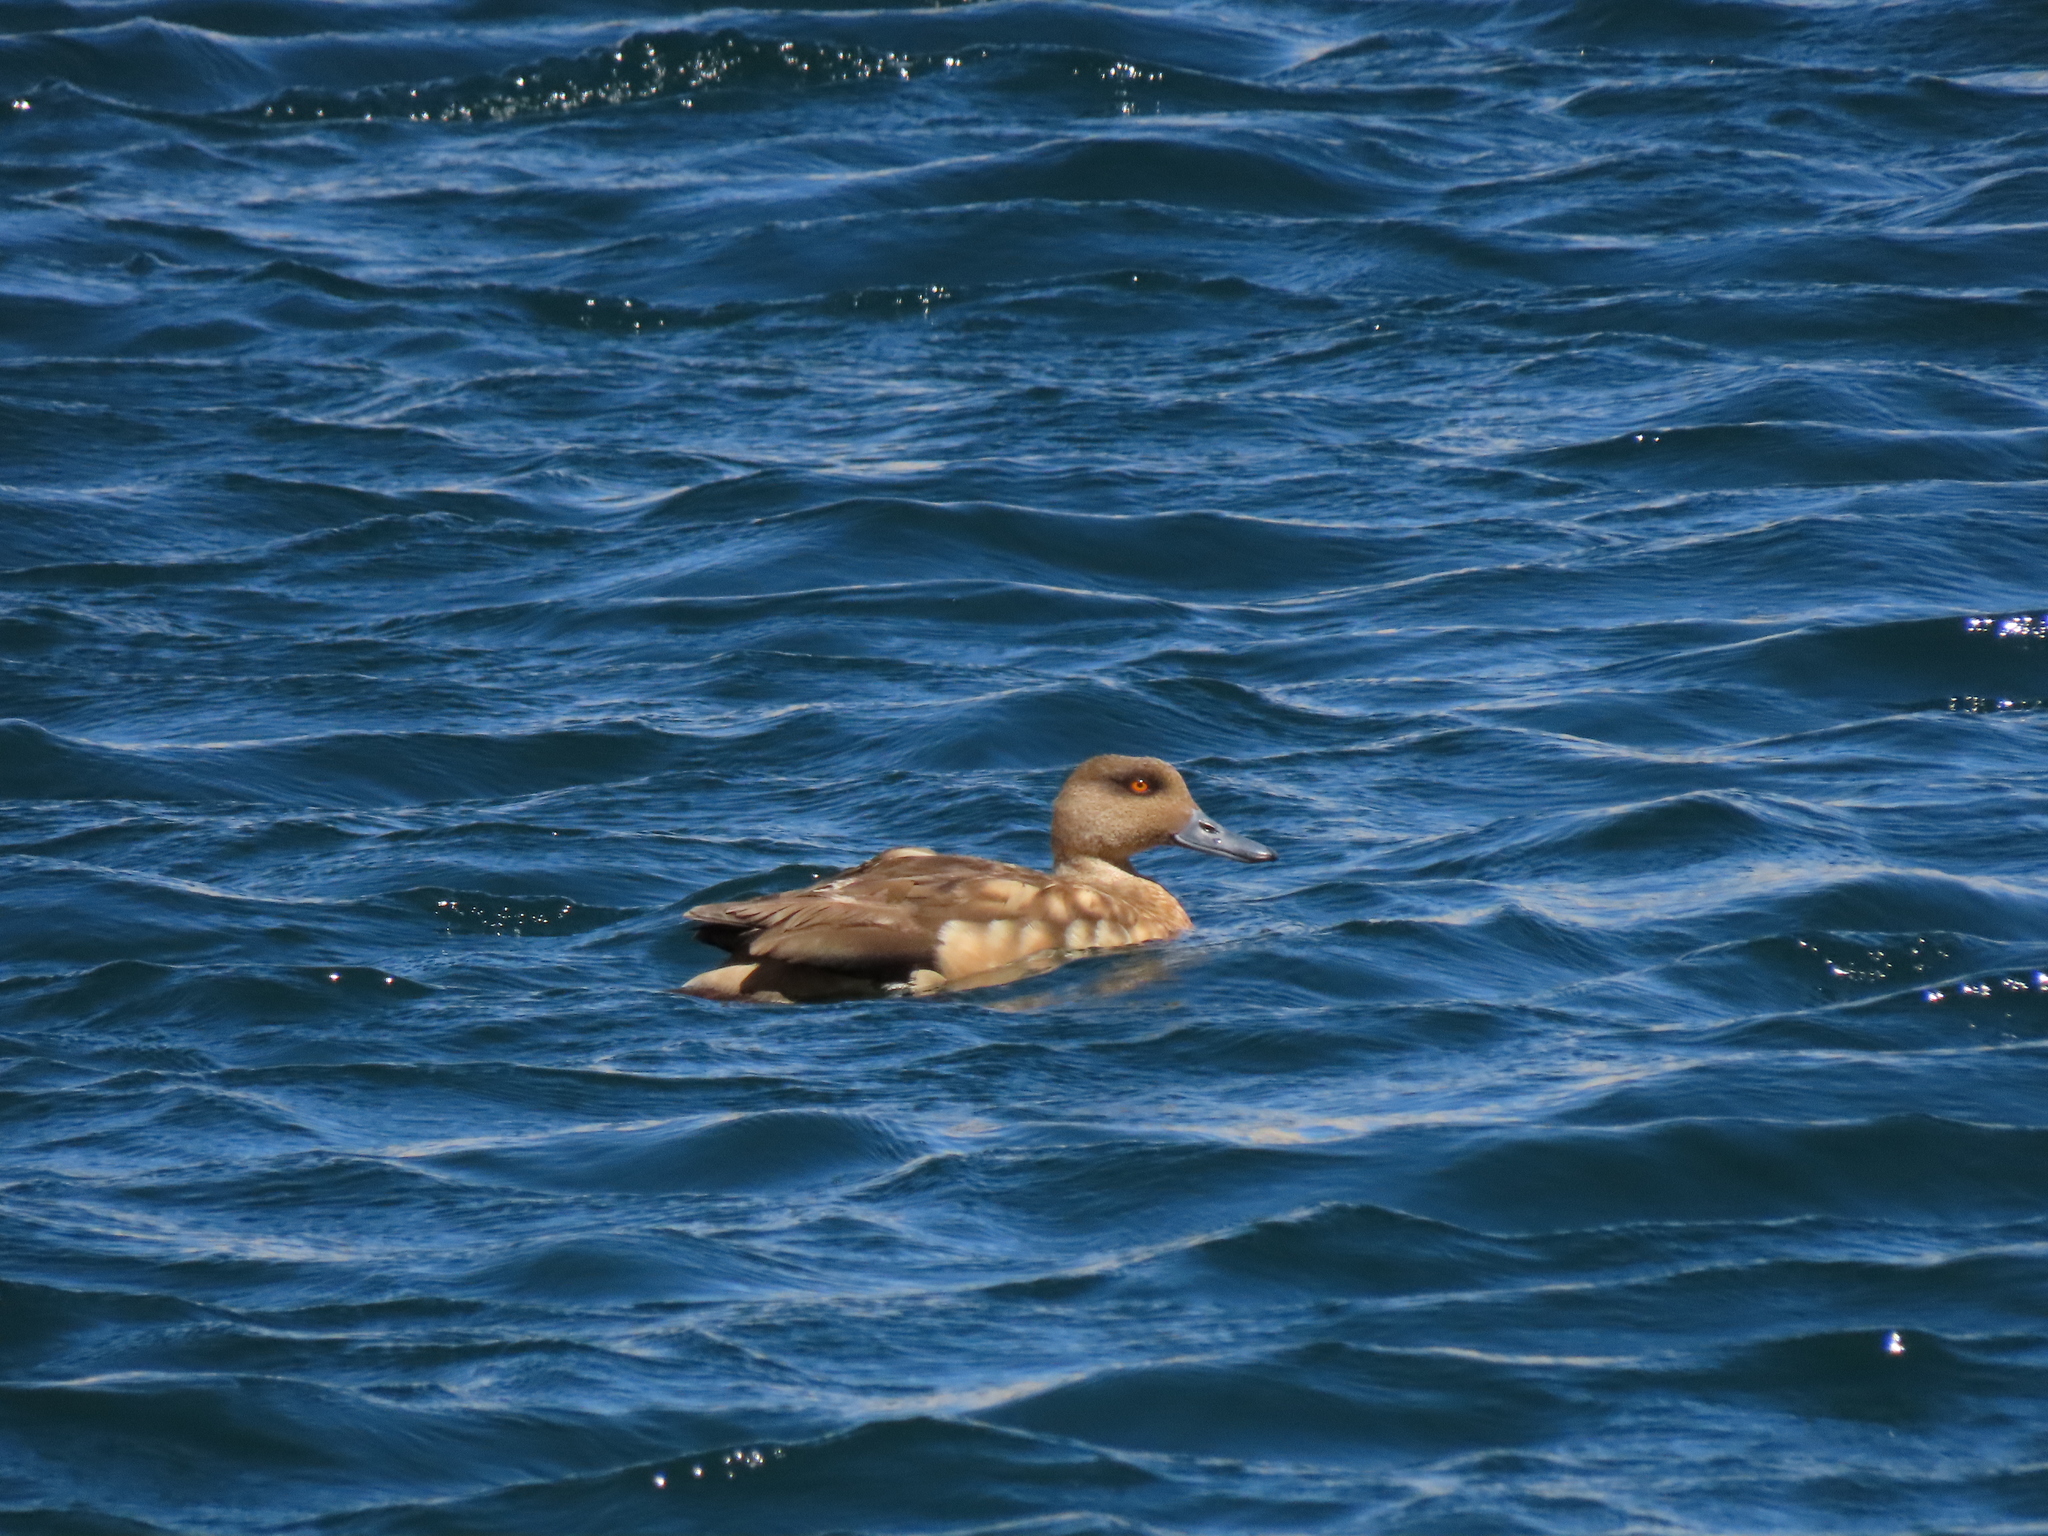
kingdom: Animalia
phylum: Chordata
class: Aves
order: Anseriformes
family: Anatidae
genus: Lophonetta
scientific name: Lophonetta specularioides
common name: Crested duck
